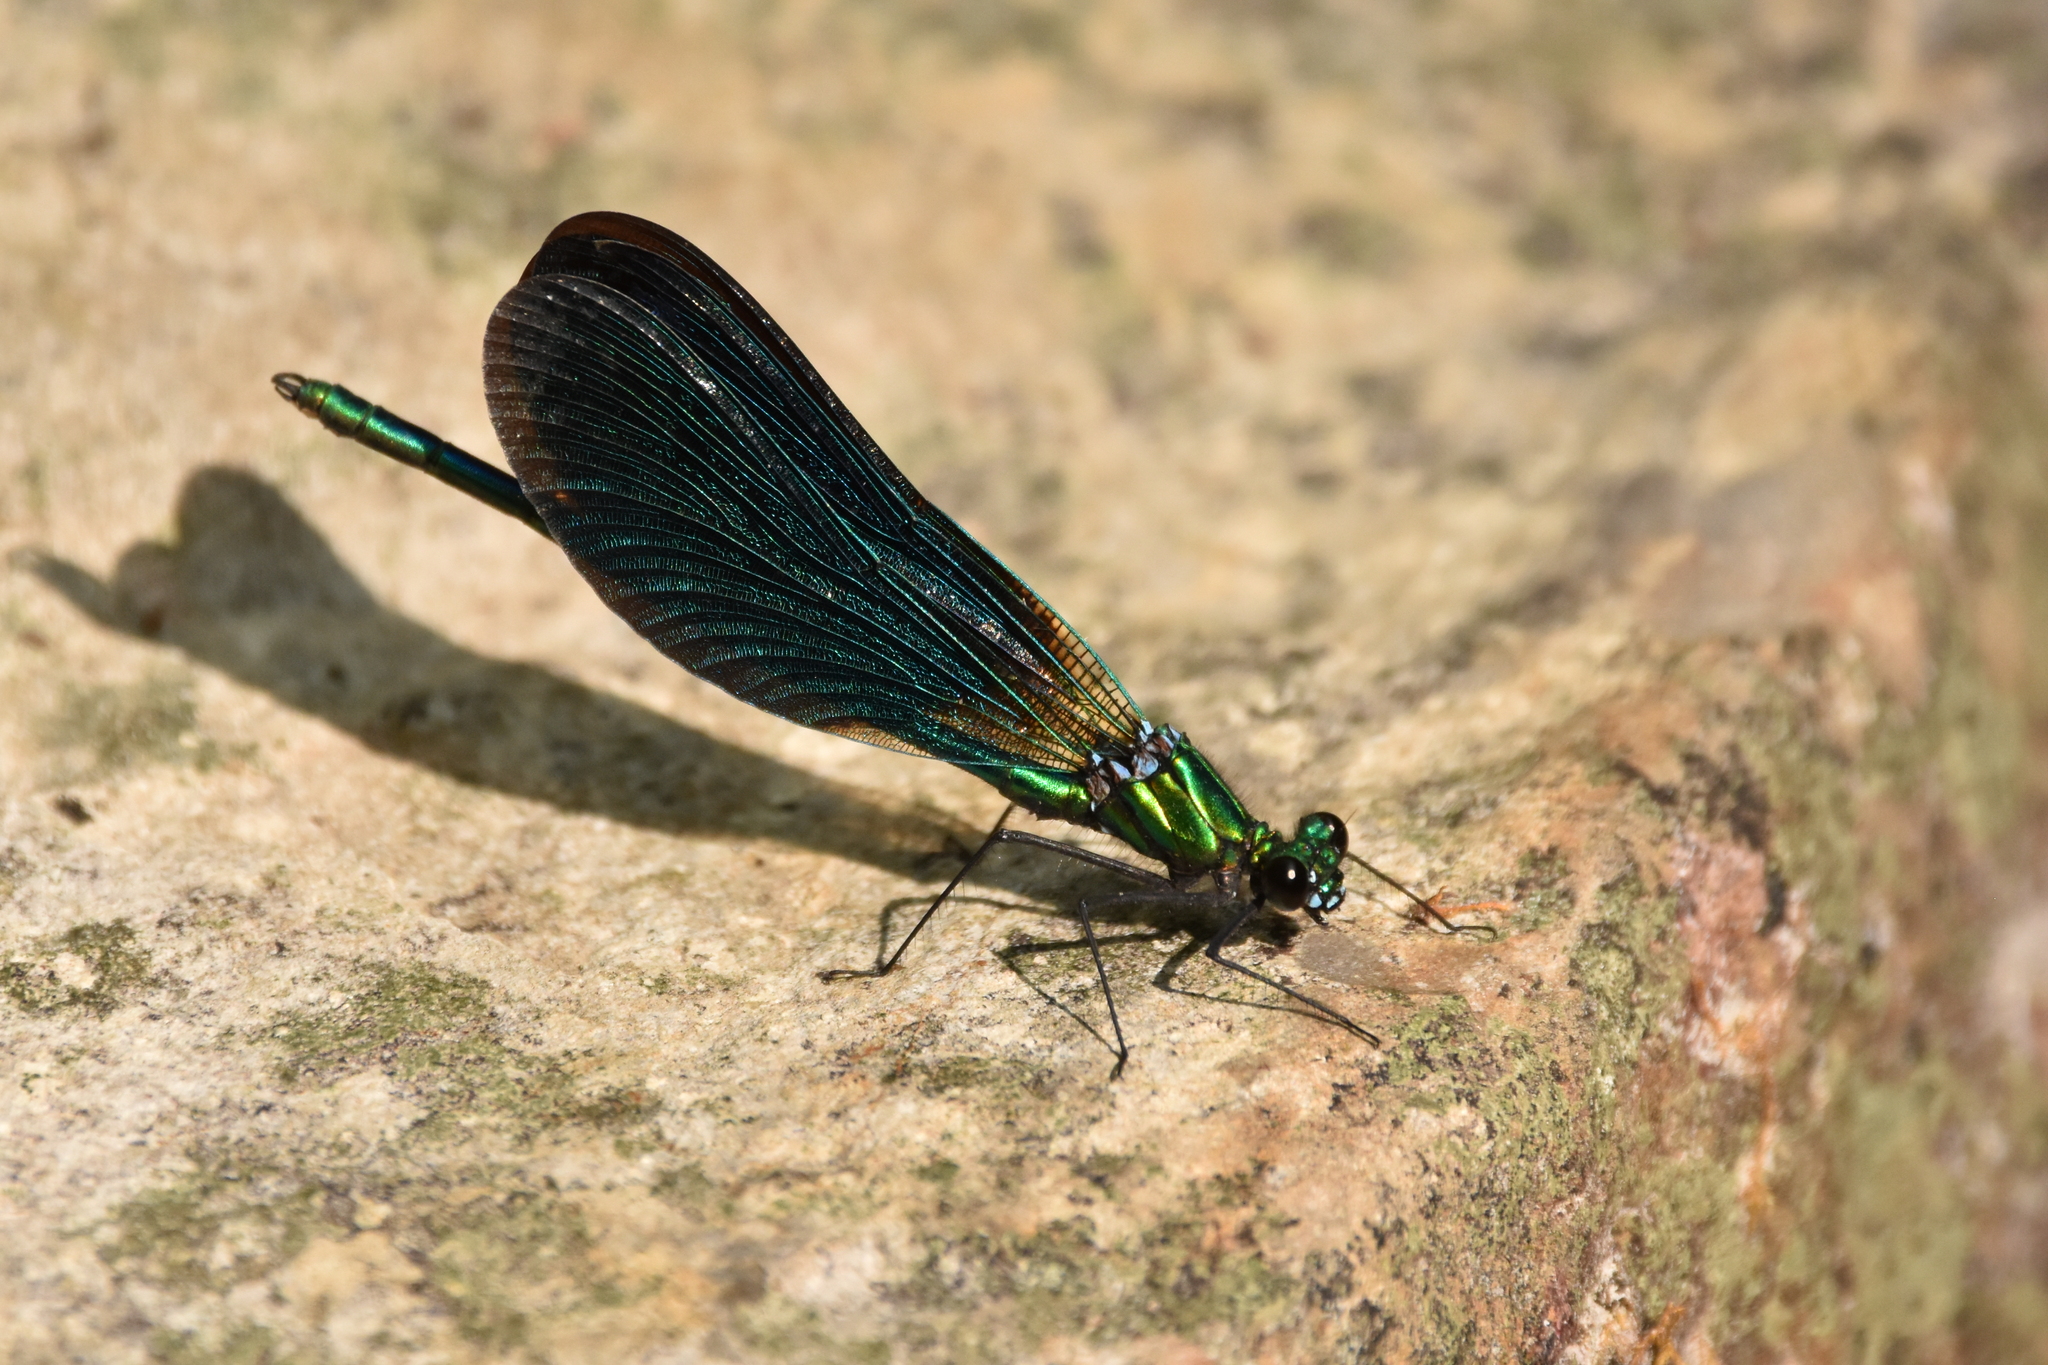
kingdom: Animalia
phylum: Arthropoda
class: Insecta
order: Odonata
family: Calopterygidae
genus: Calopteryx
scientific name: Calopteryx virgo
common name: Beautiful demoiselle
